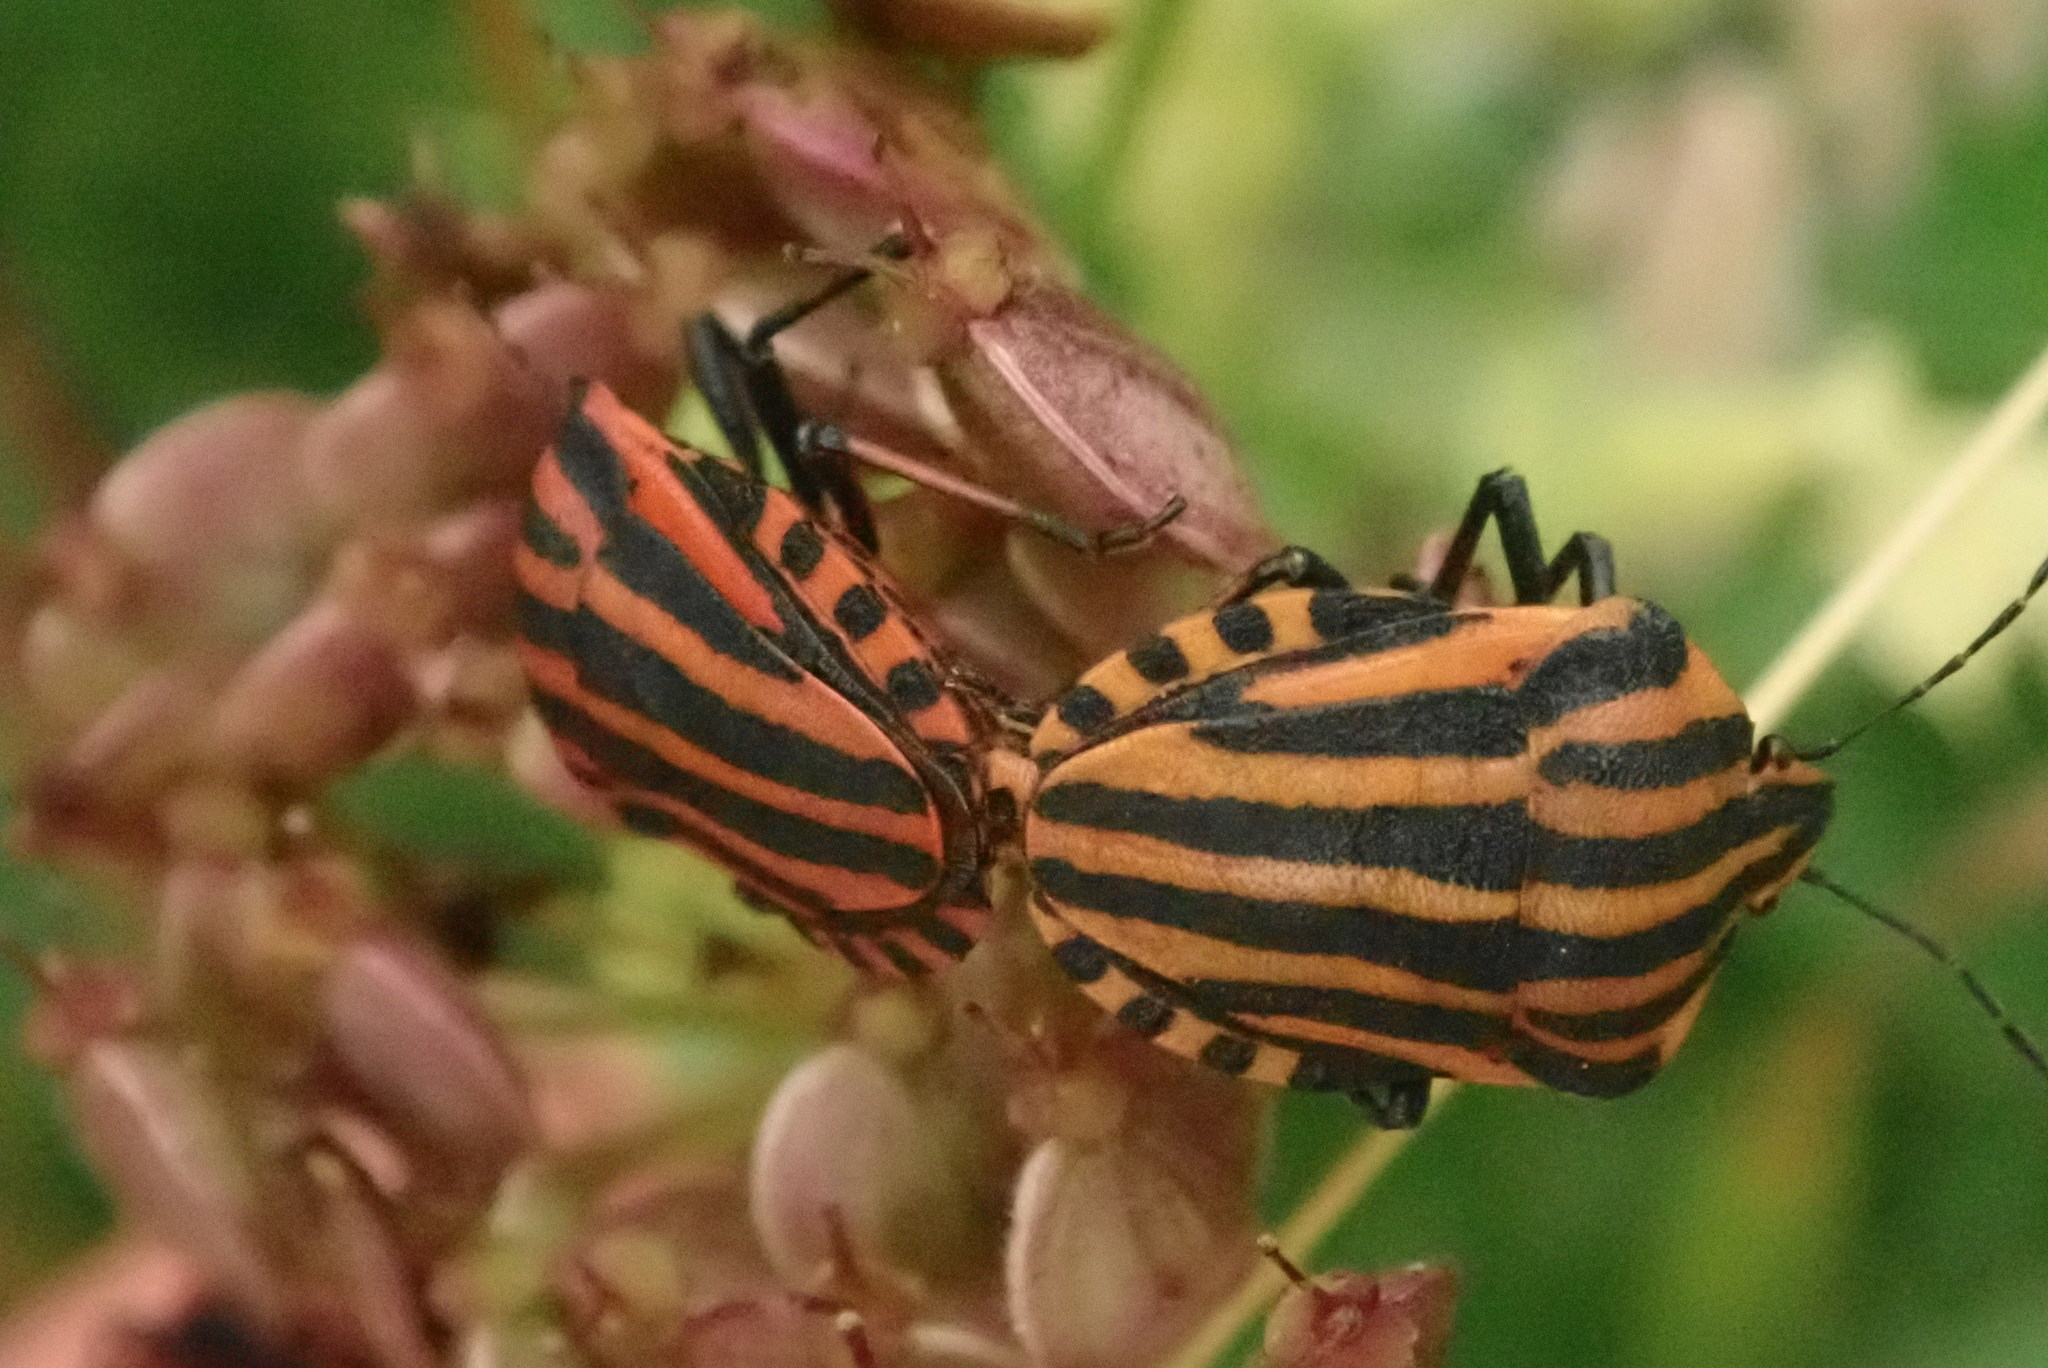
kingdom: Animalia
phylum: Arthropoda
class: Insecta
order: Hemiptera
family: Pentatomidae
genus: Graphosoma
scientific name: Graphosoma italicum
